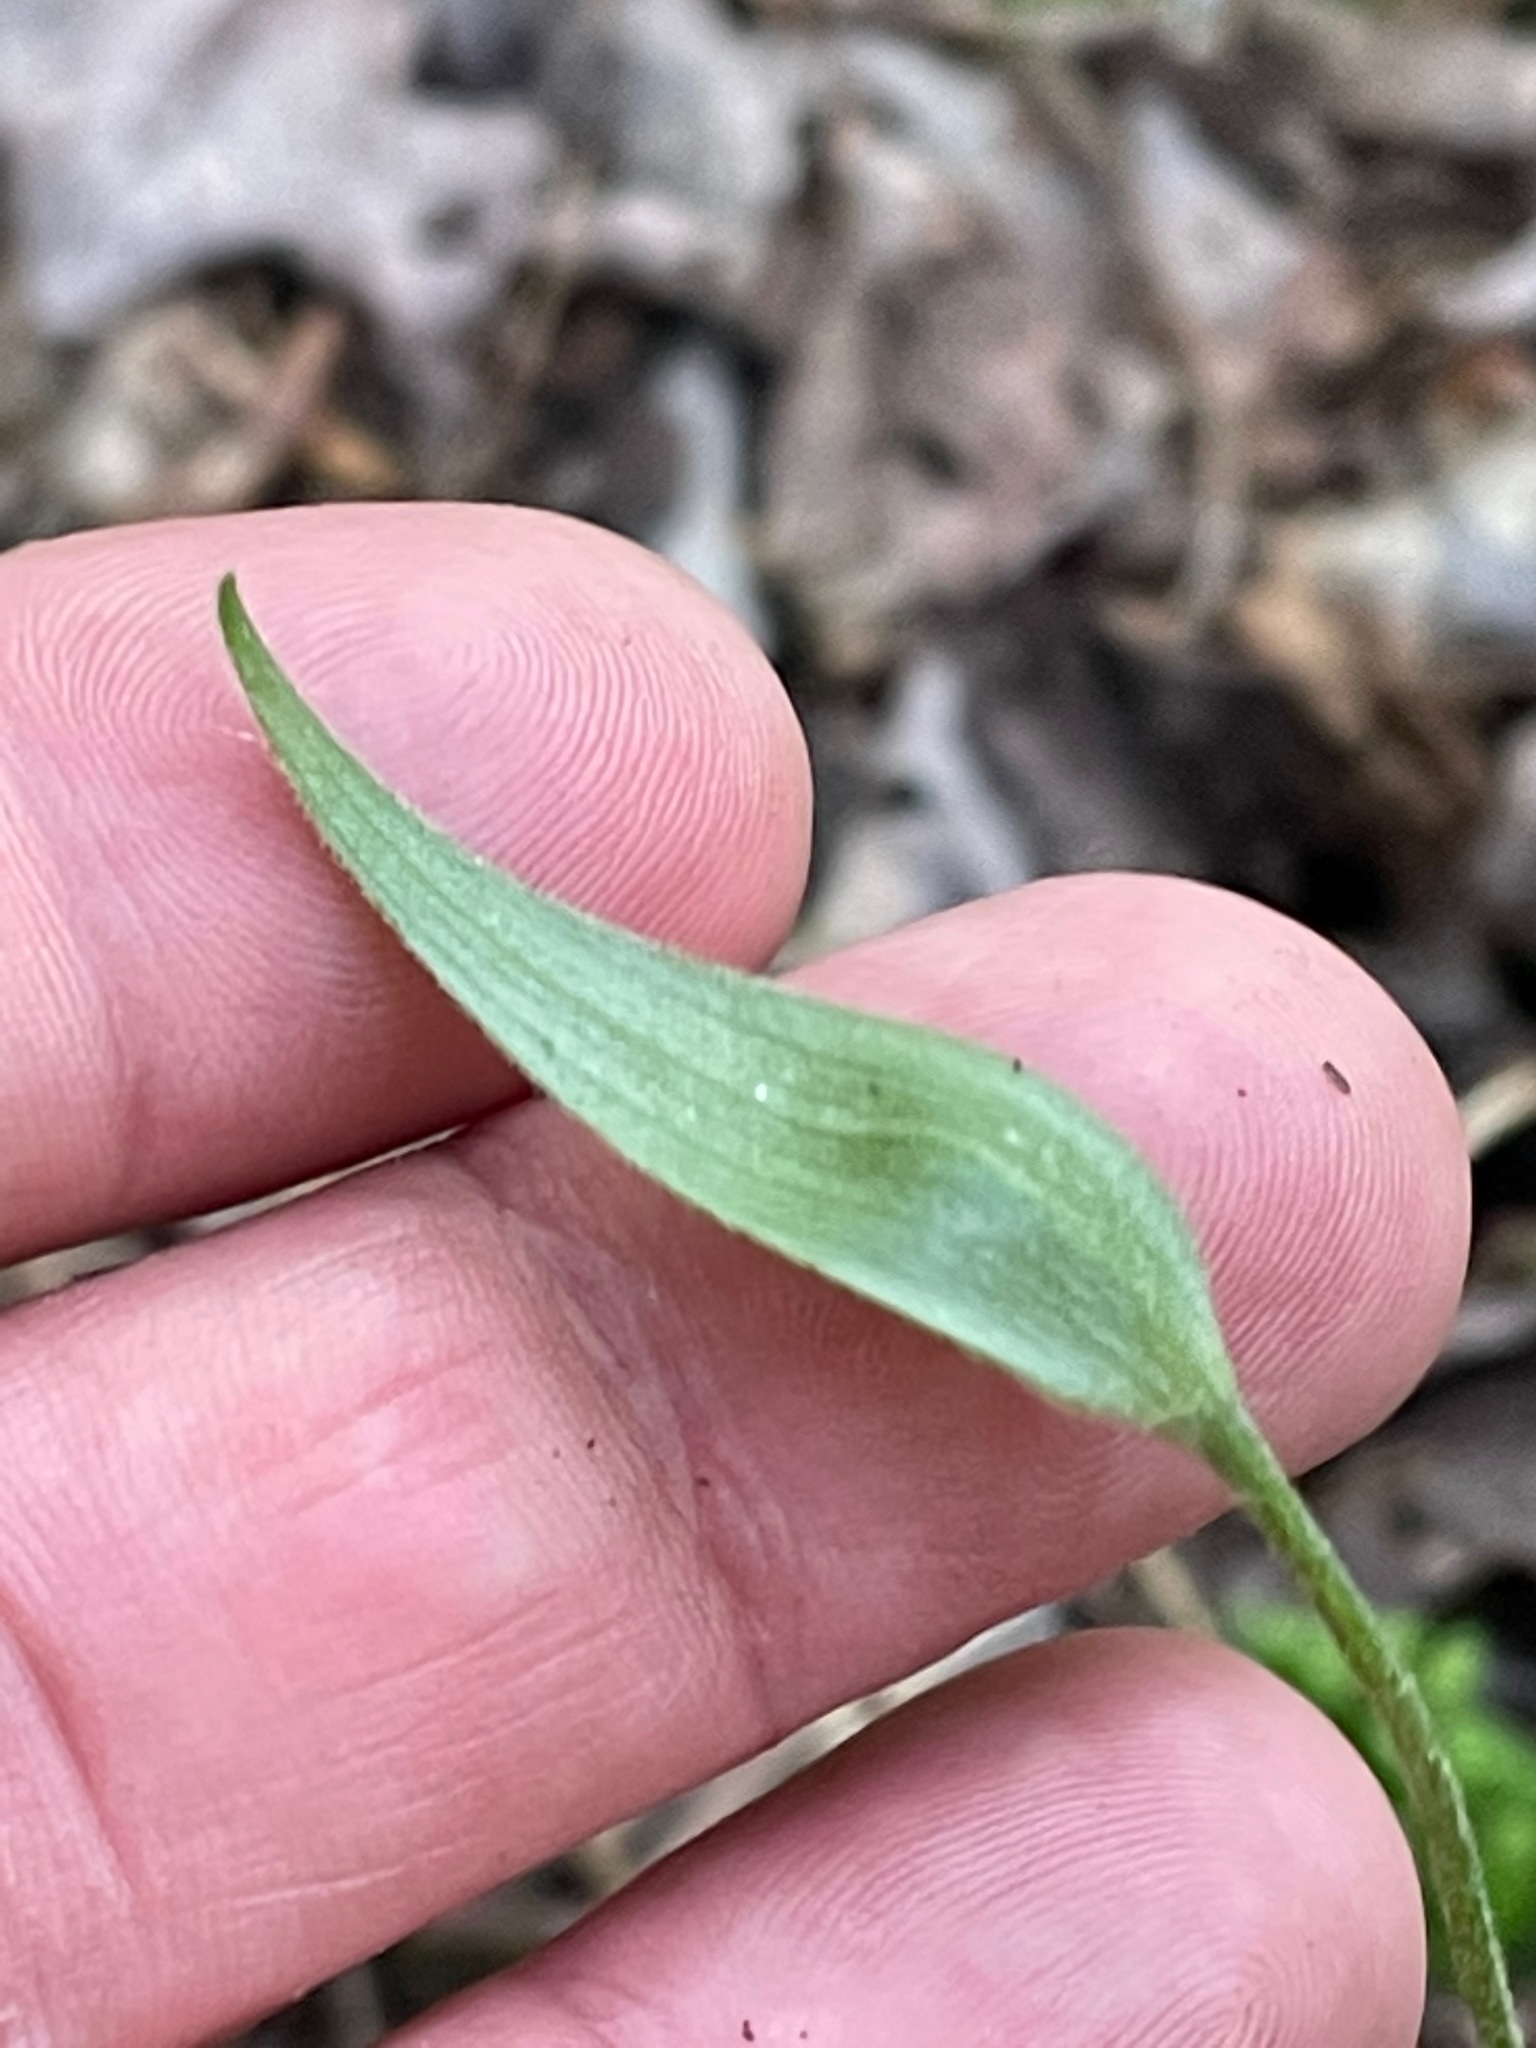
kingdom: Plantae
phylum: Tracheophyta
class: Liliopsida
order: Asparagales
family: Orchidaceae
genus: Cypripedium
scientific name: Cypripedium acaule
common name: Pink lady's-slipper
